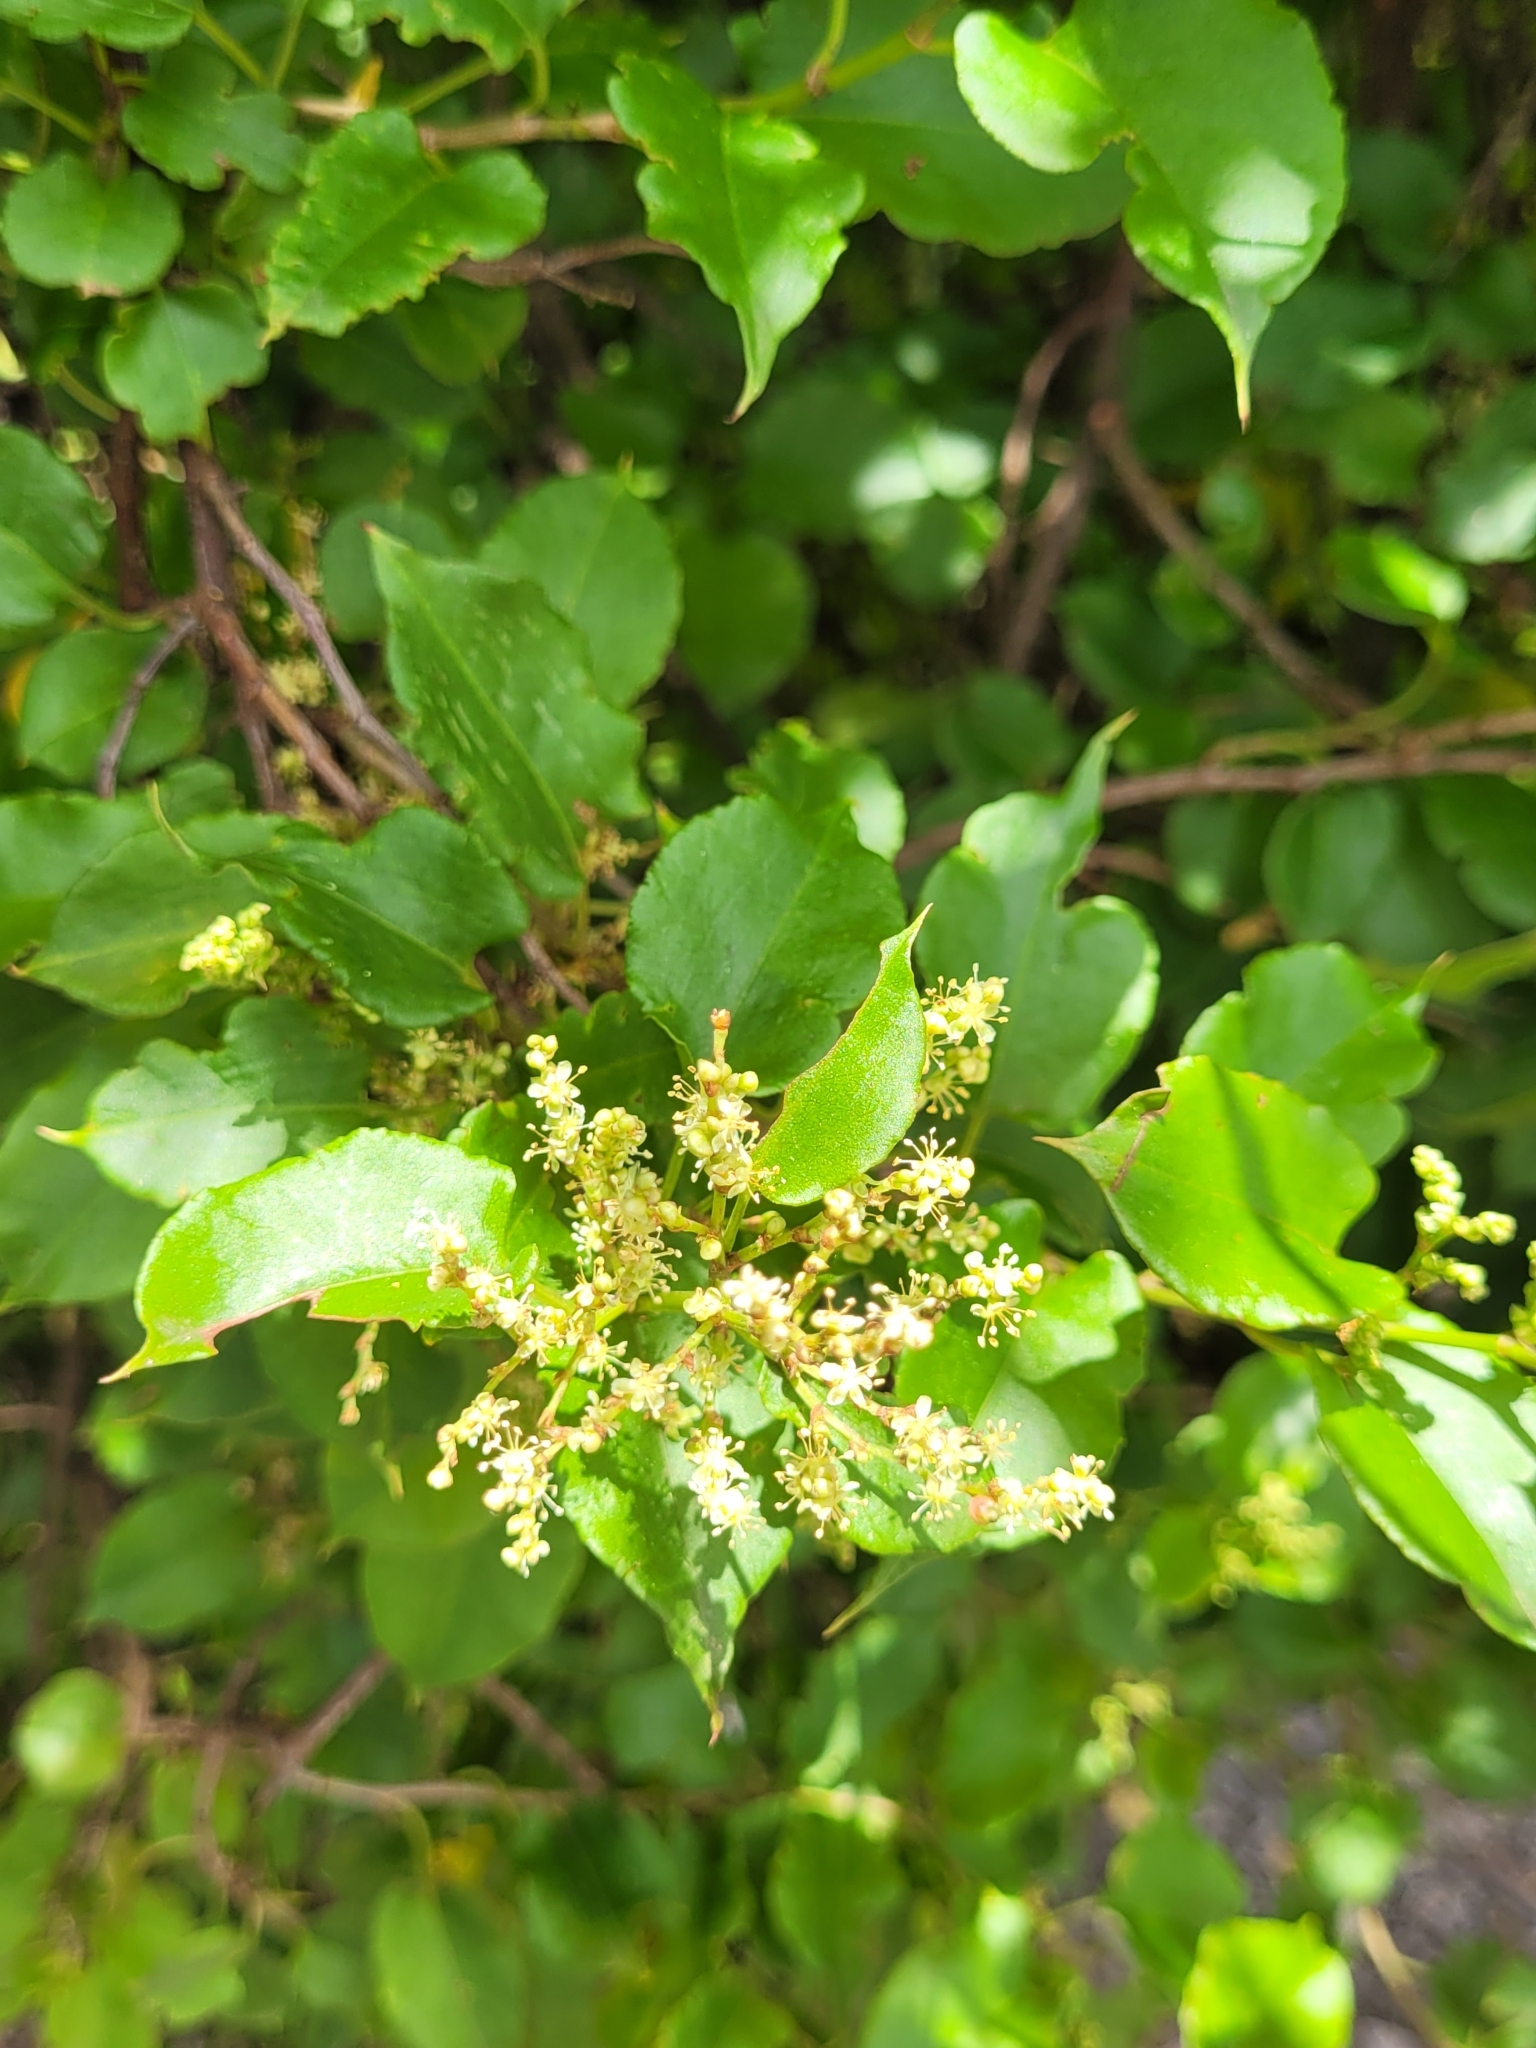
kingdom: Plantae
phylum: Tracheophyta
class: Magnoliopsida
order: Caryophyllales
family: Polygonaceae
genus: Muehlenbeckia
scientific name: Muehlenbeckia australis
